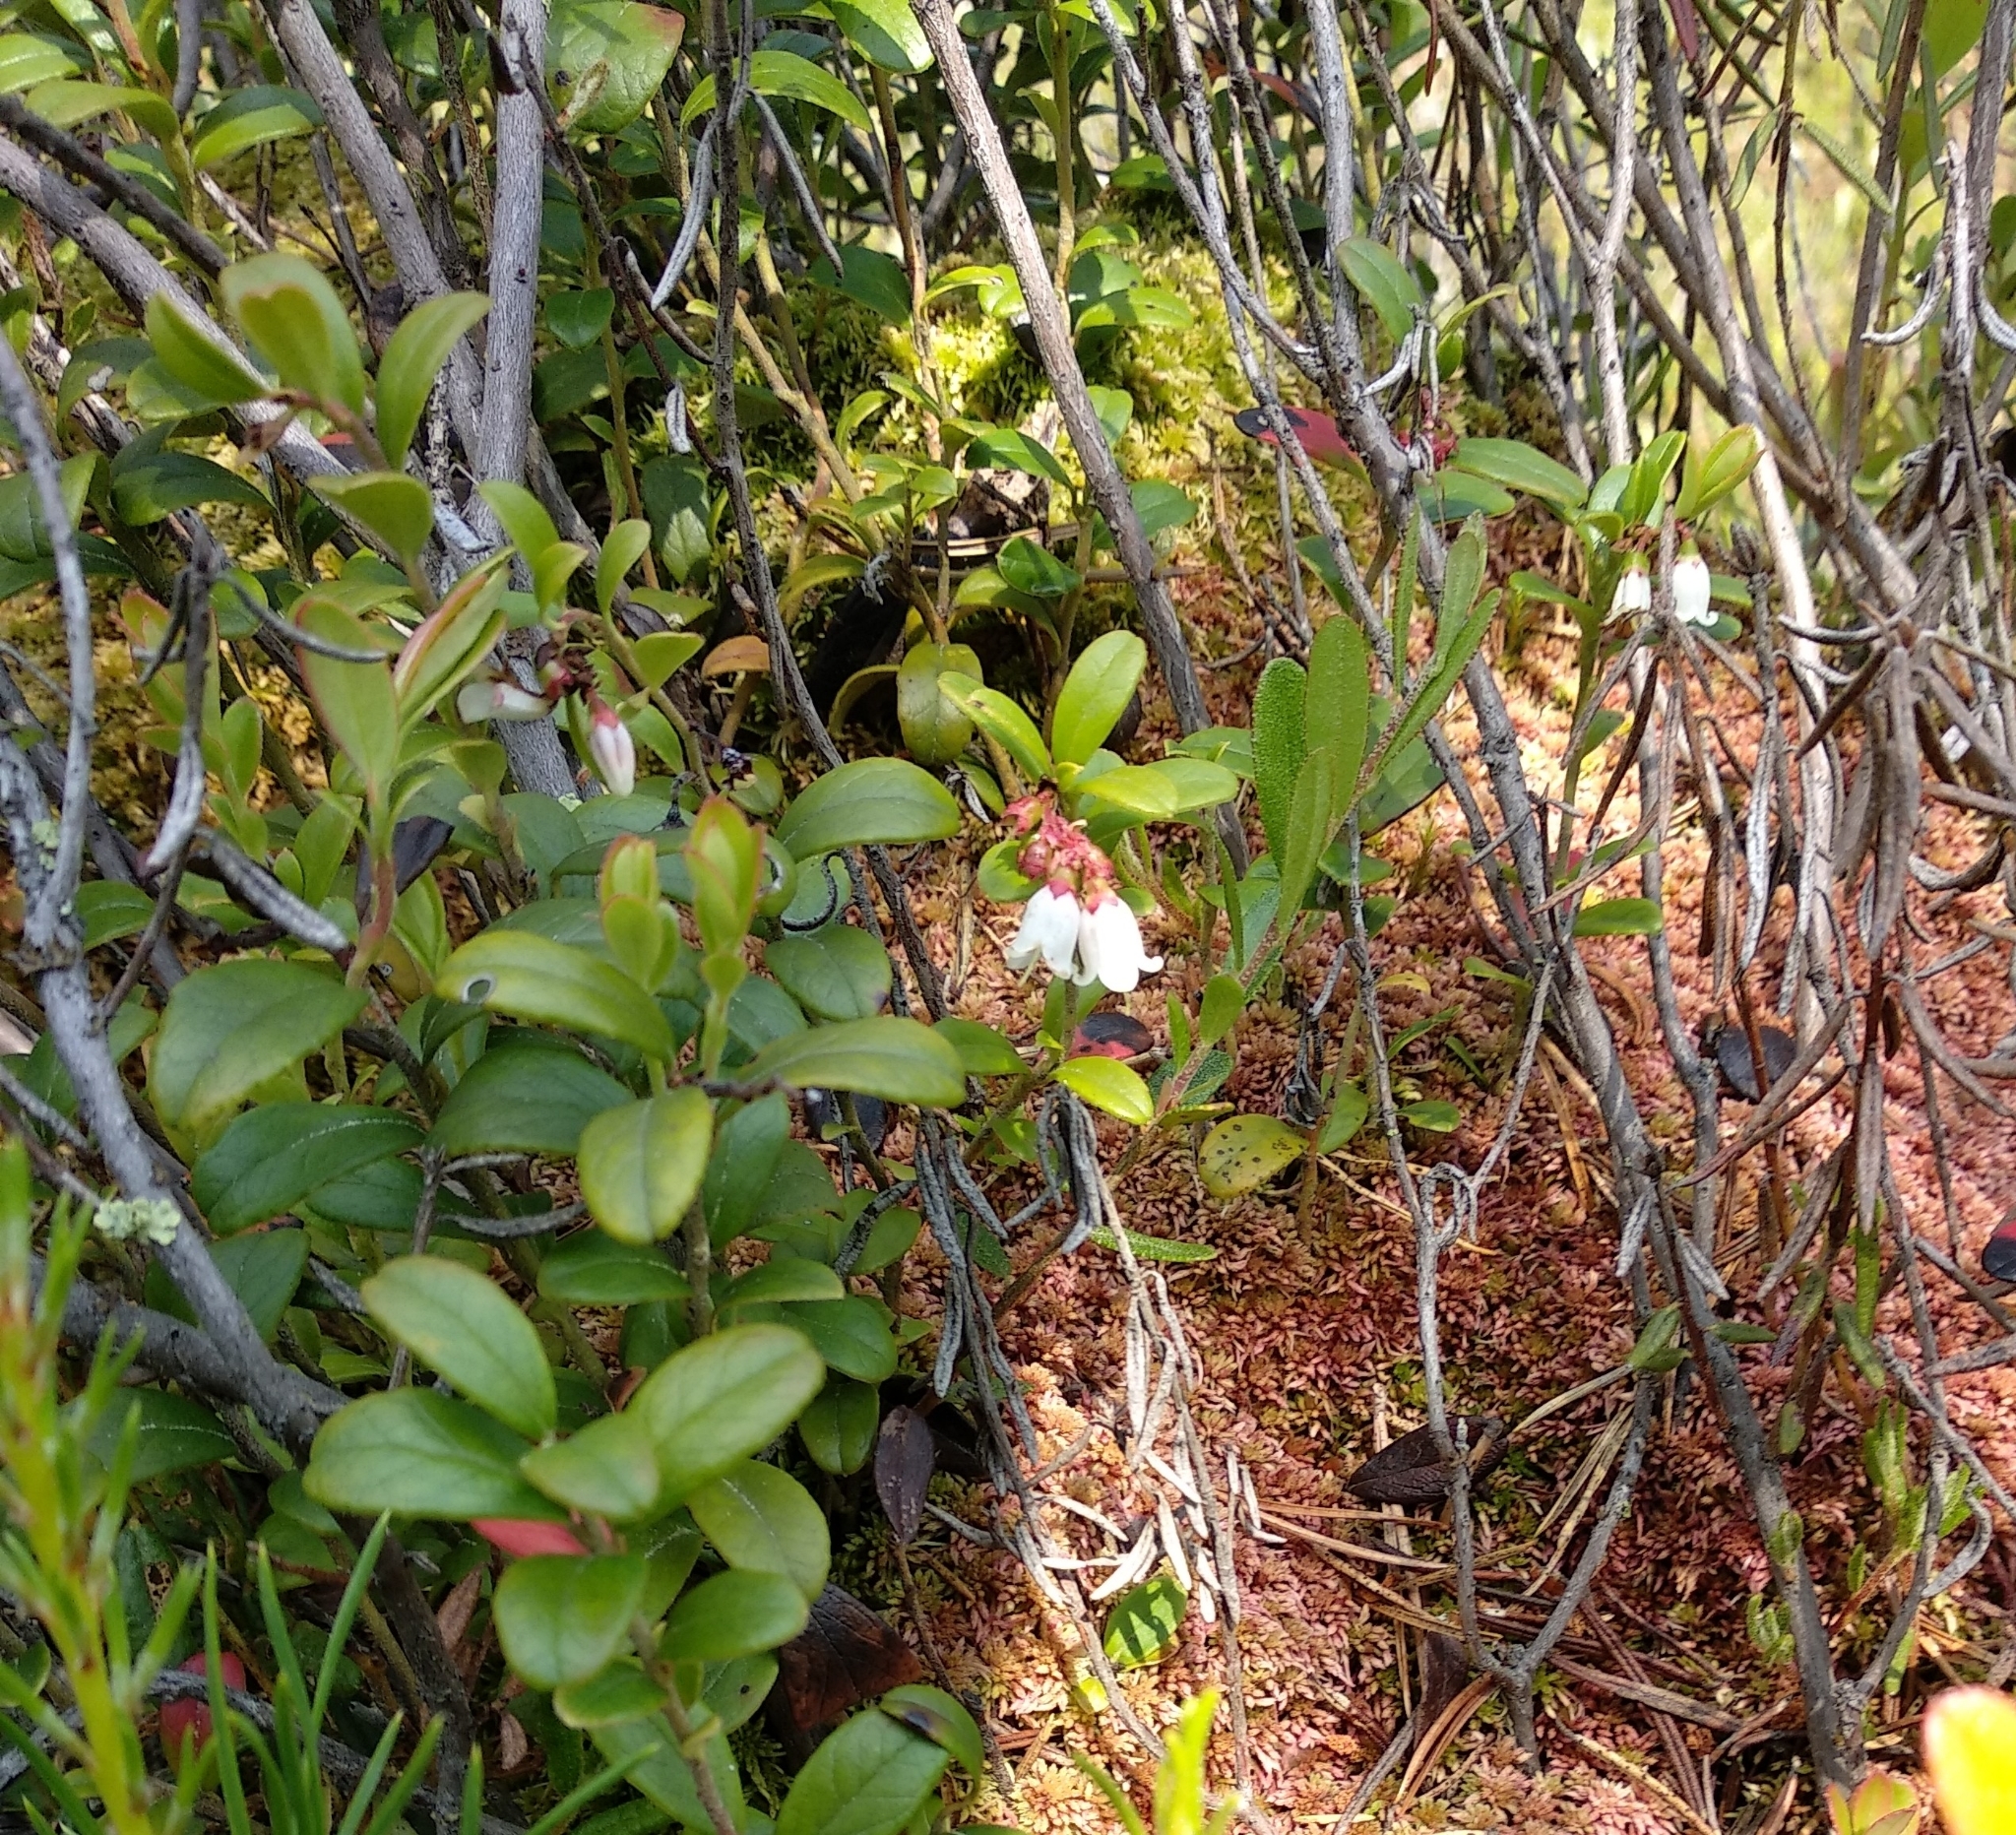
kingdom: Plantae
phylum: Tracheophyta
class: Magnoliopsida
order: Ericales
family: Ericaceae
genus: Vaccinium
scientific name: Vaccinium vitis-idaea
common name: Cowberry
